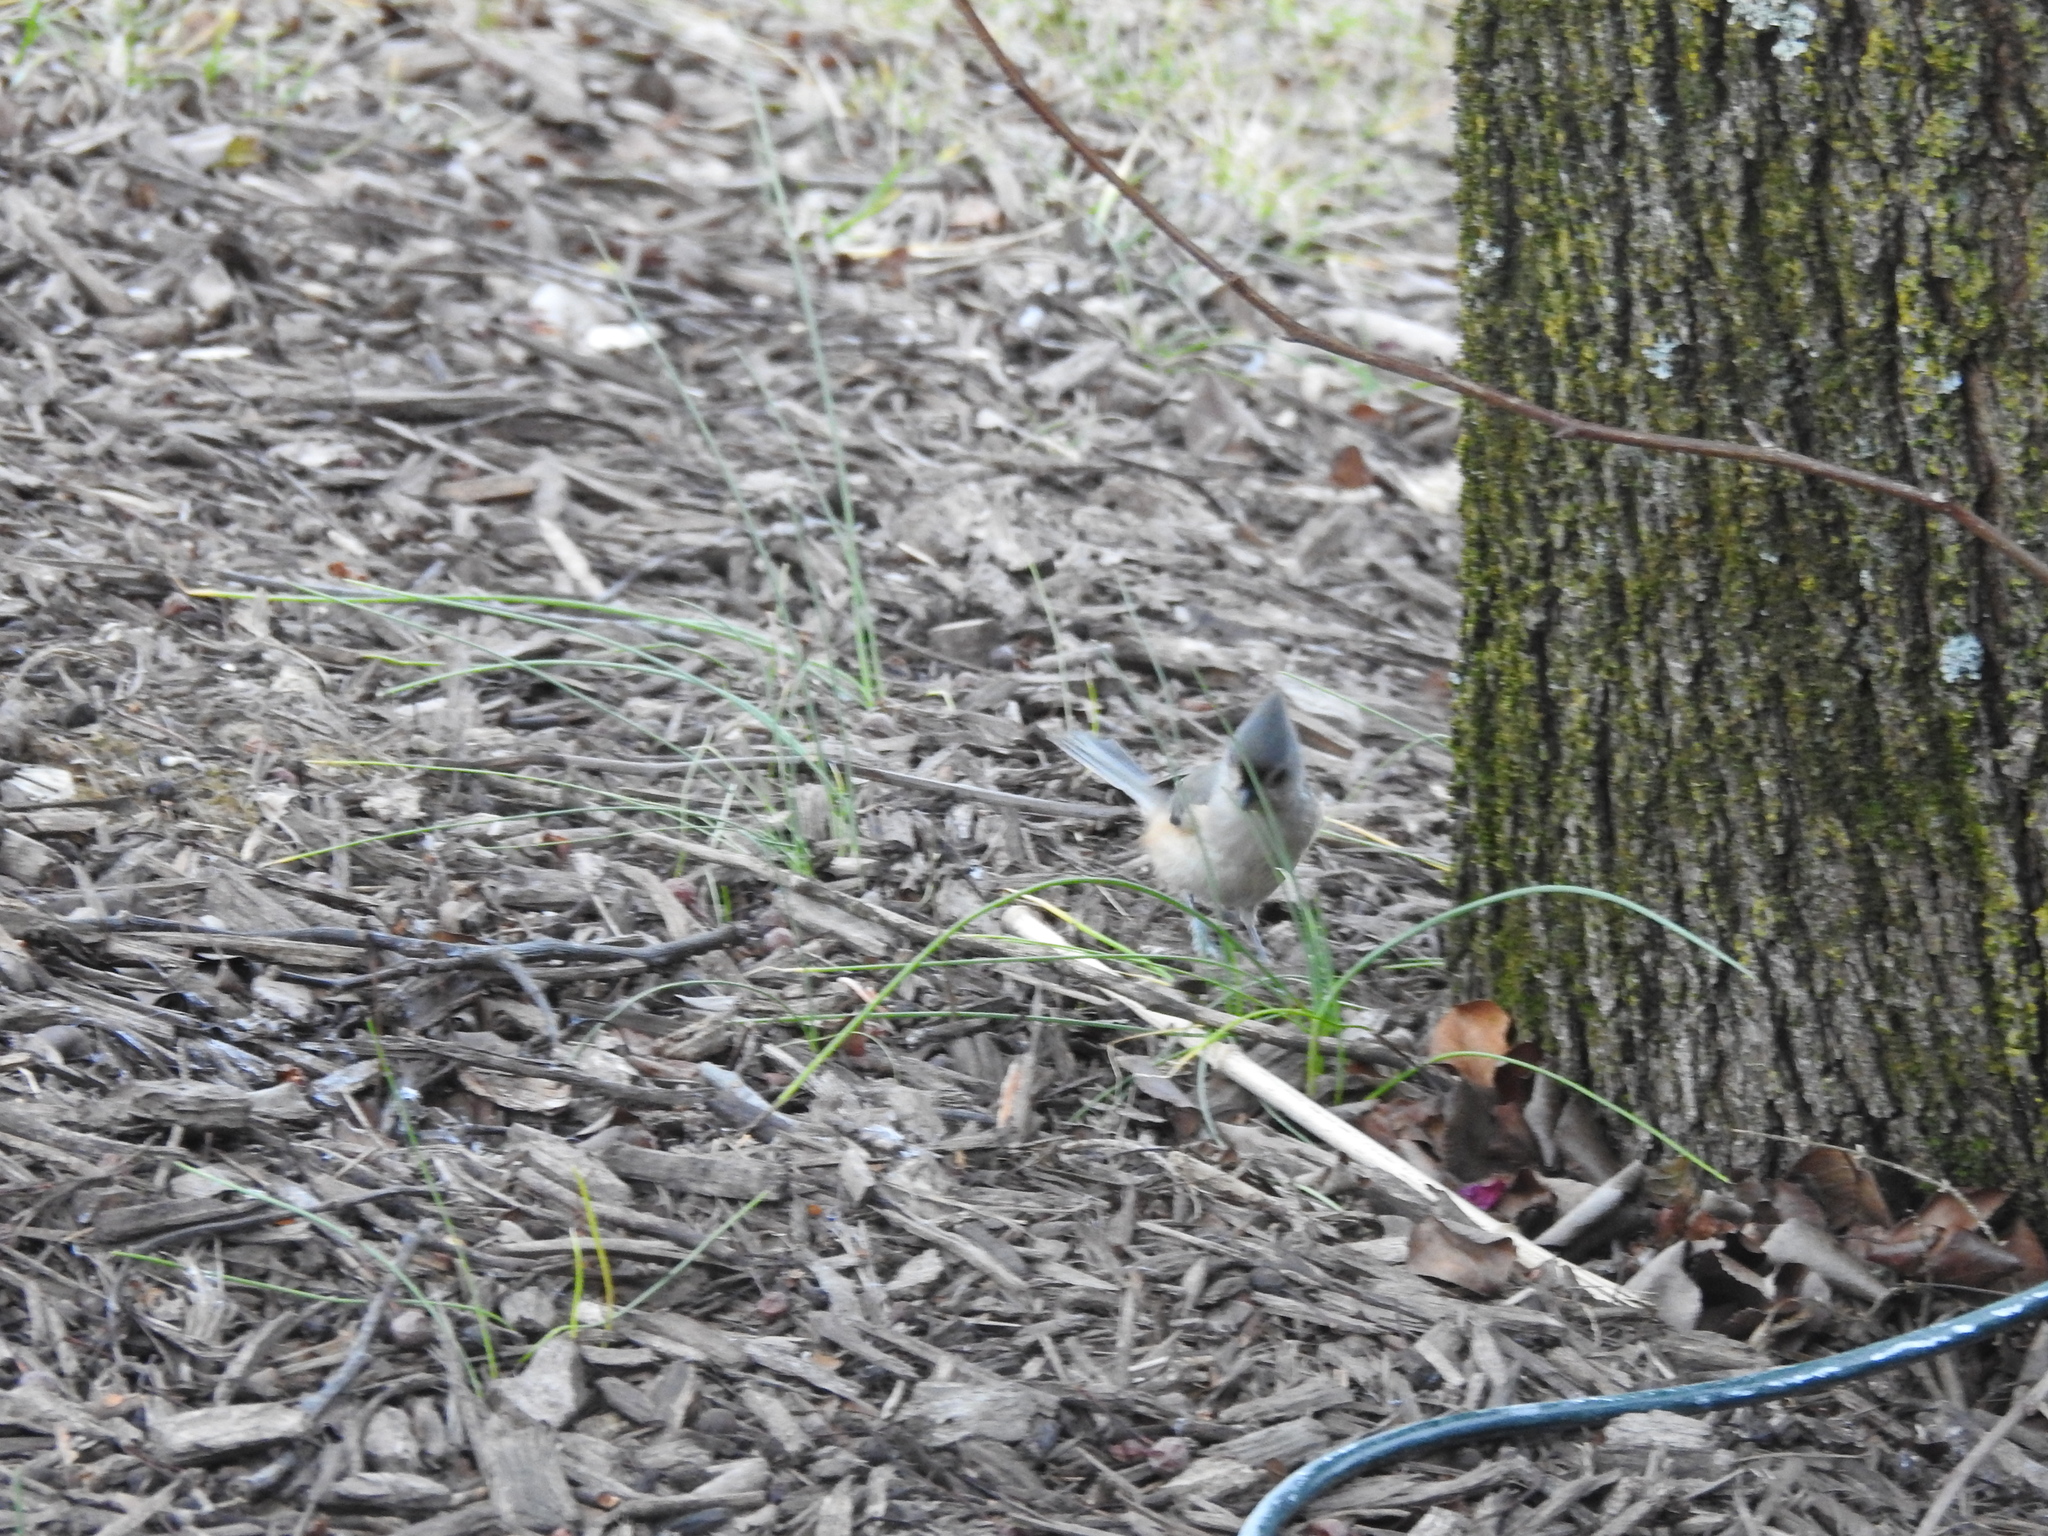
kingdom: Animalia
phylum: Chordata
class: Aves
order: Passeriformes
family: Paridae
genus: Baeolophus
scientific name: Baeolophus bicolor
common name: Tufted titmouse
